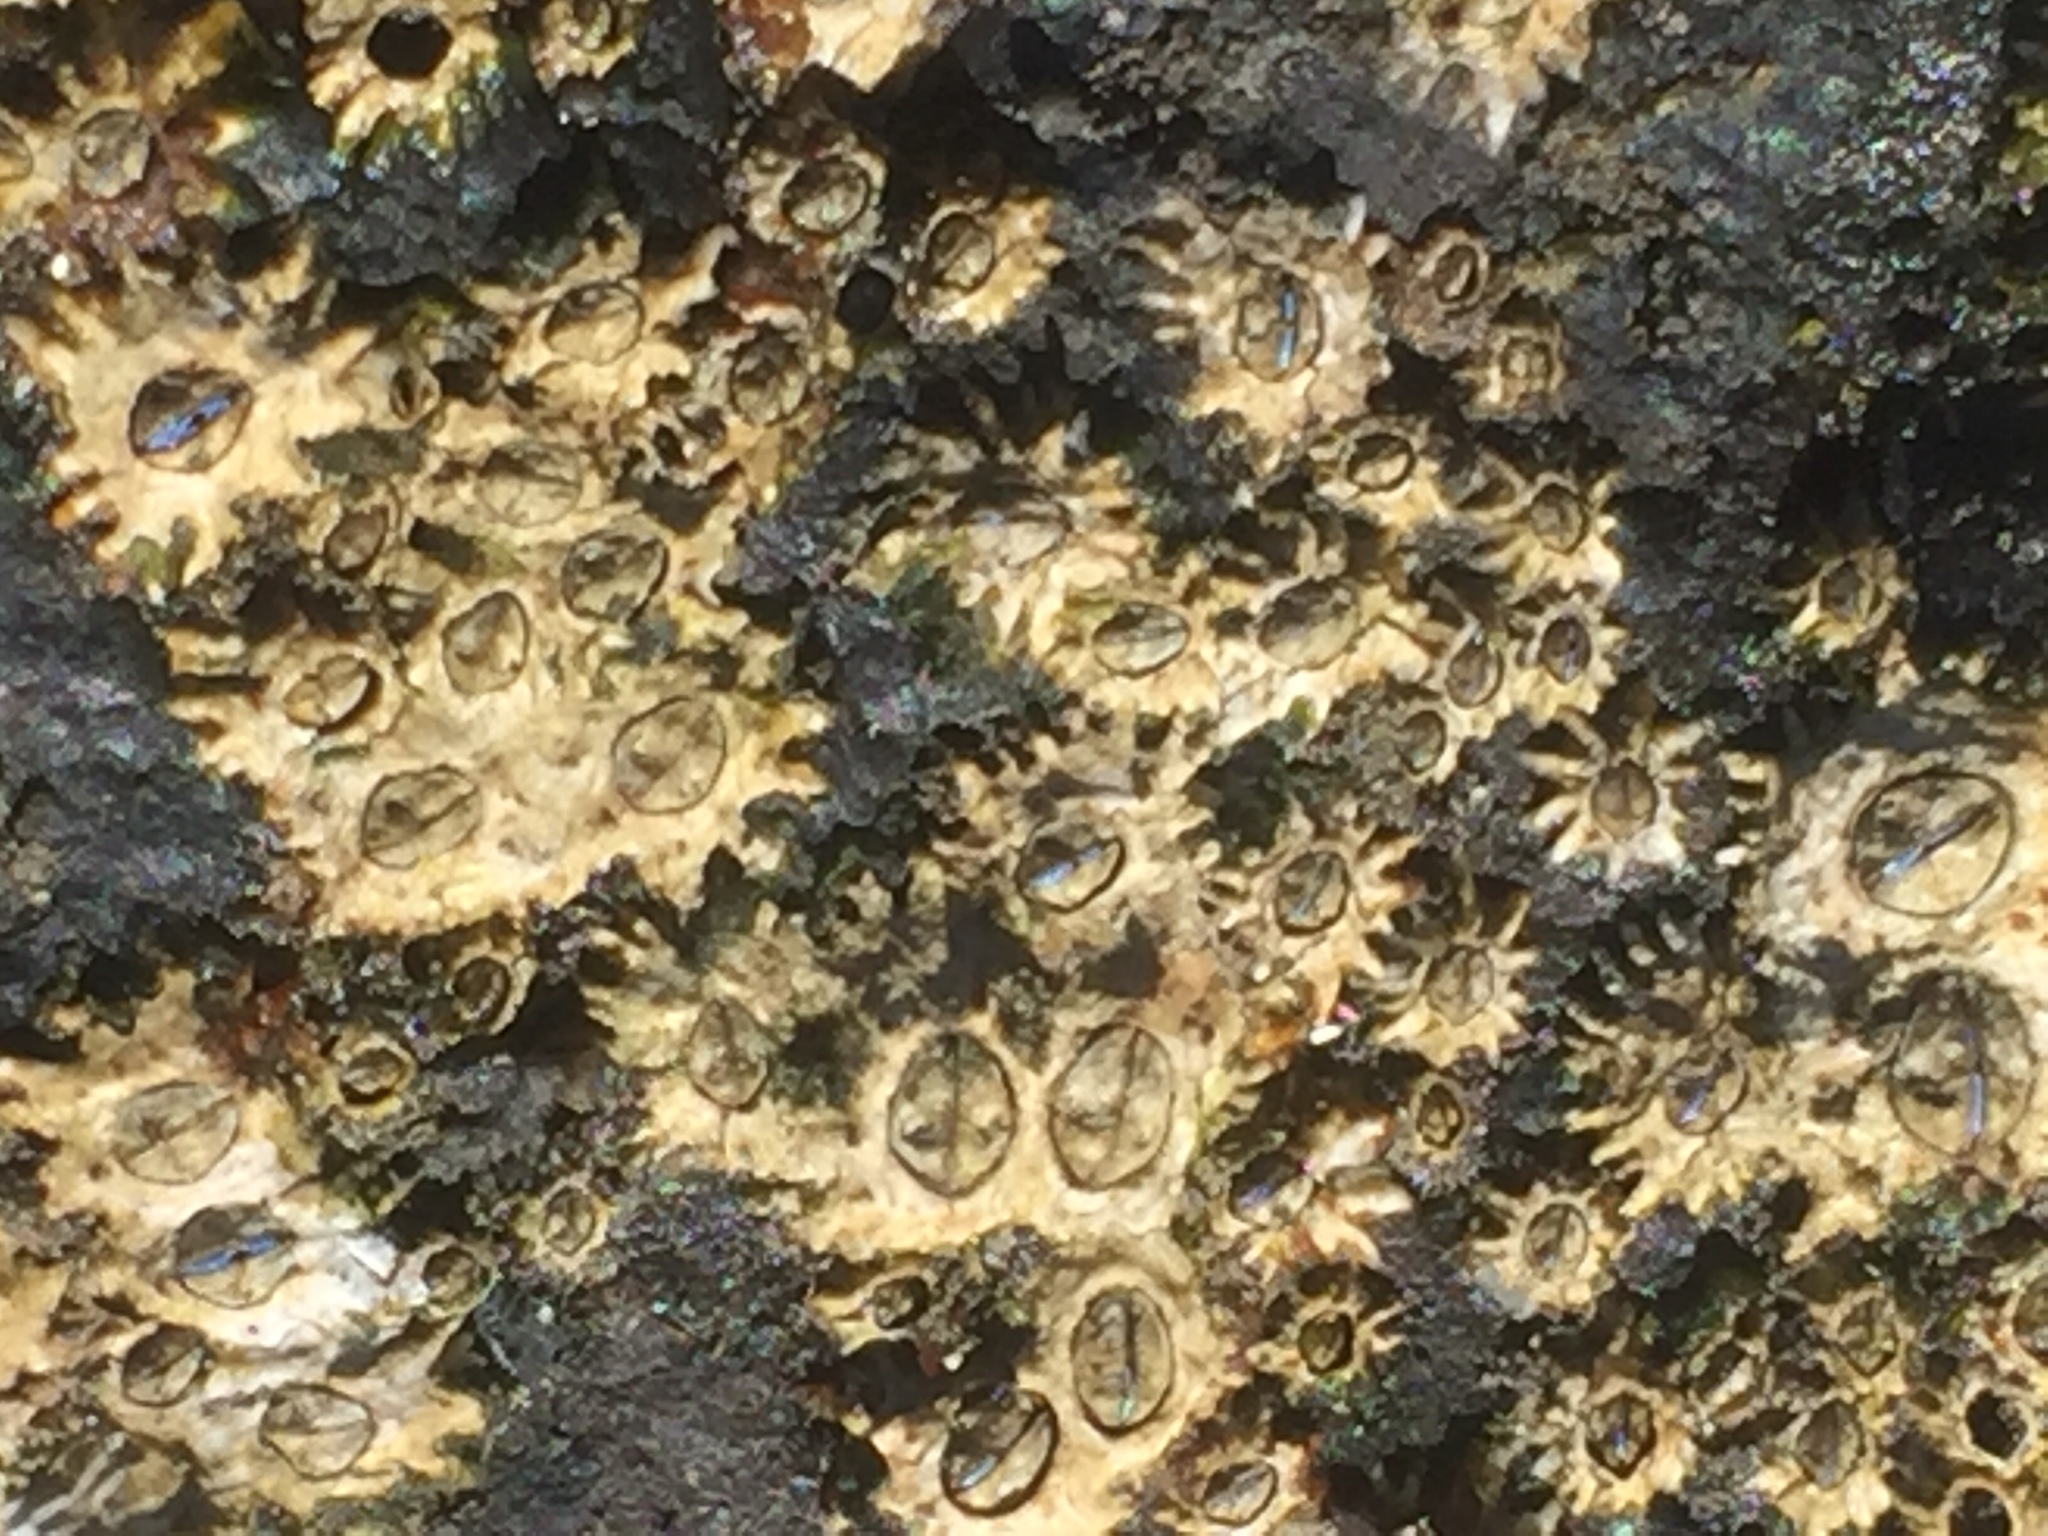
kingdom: Animalia
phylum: Arthropoda
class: Maxillopoda
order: Sessilia
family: Chthamalidae
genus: Chthamalus
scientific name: Chthamalus stellatus
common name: Poli's stellate barnacle
